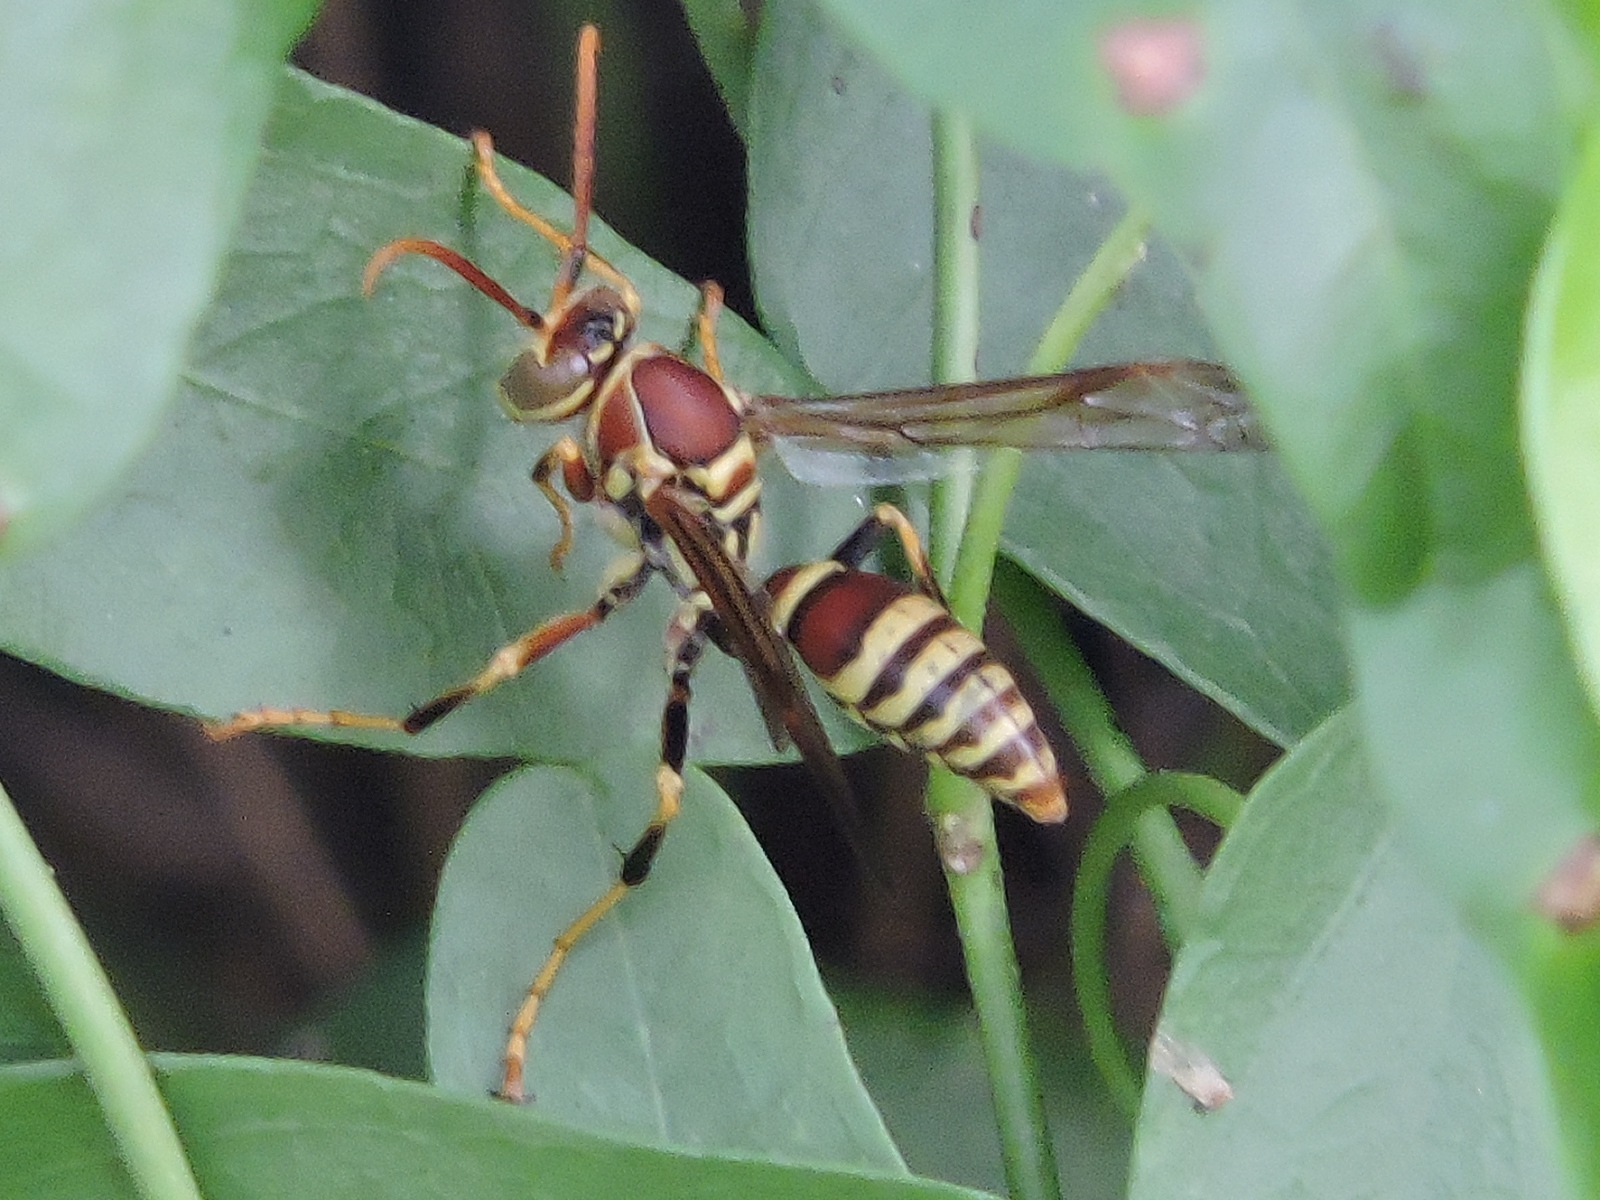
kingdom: Animalia
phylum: Arthropoda
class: Insecta
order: Hymenoptera
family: Eumenidae
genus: Polistes
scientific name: Polistes exclamans
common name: Paper wasp
